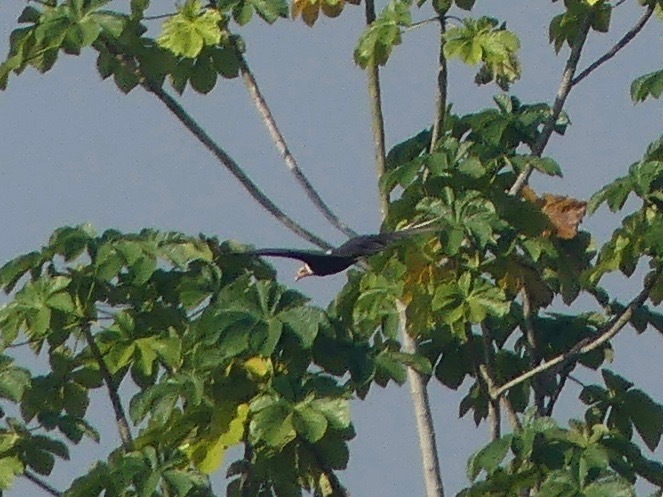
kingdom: Animalia
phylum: Chordata
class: Aves
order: Accipitriformes
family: Cathartidae
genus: Cathartes
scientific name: Cathartes burrovianus
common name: Lesser yellow-headed vulture
